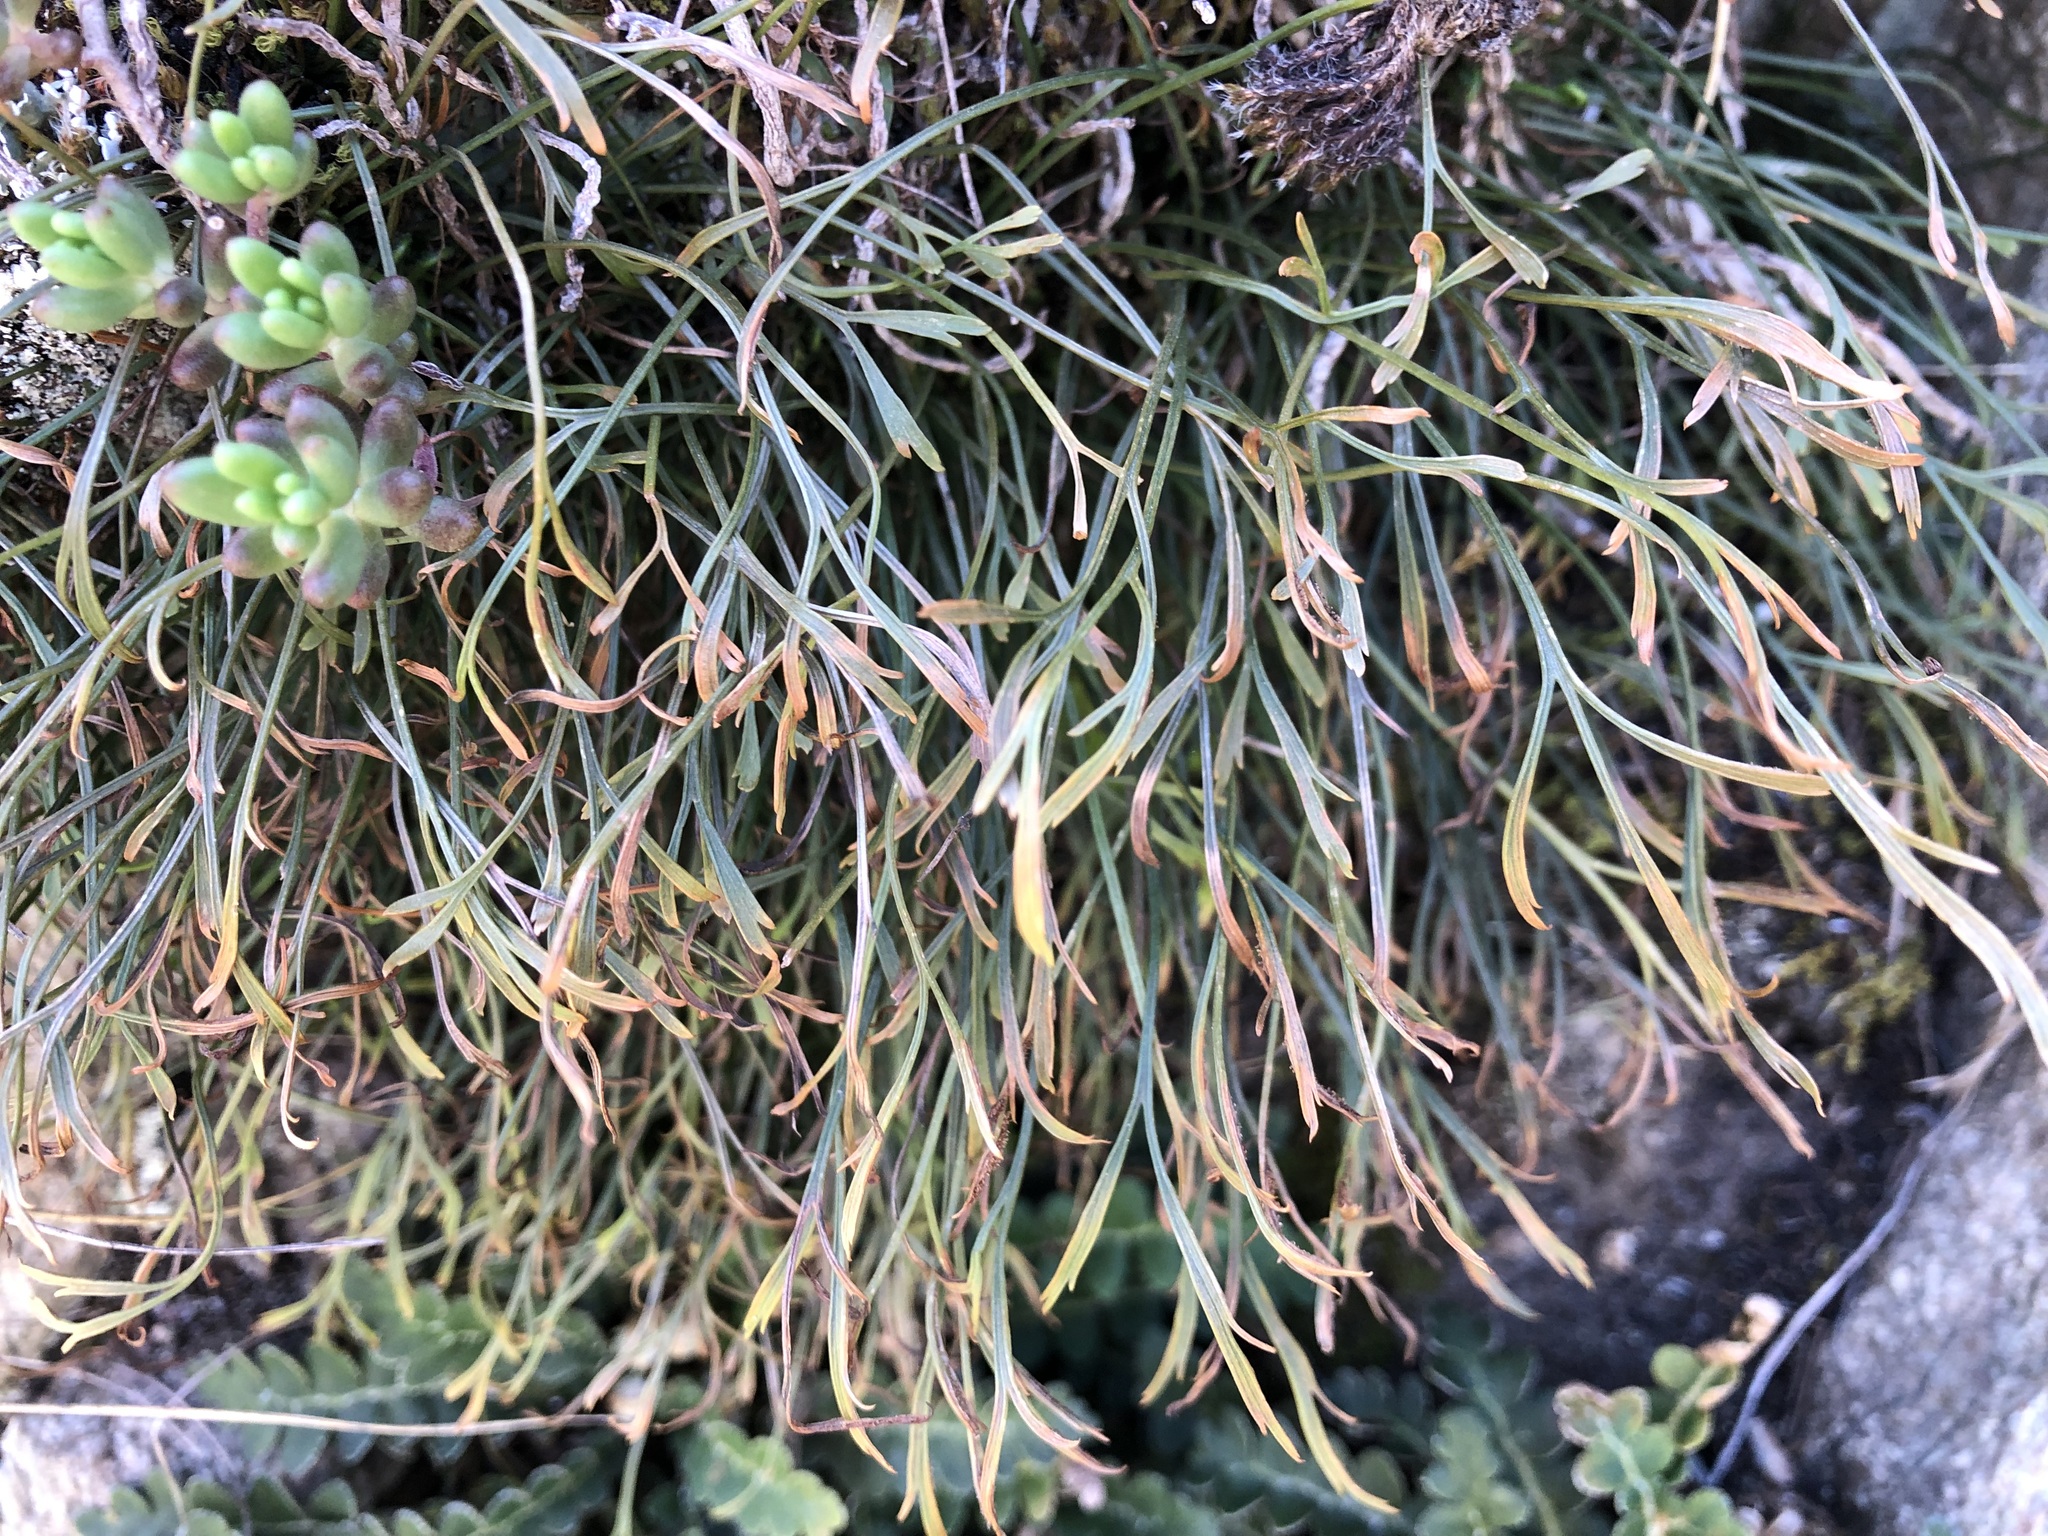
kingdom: Plantae
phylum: Tracheophyta
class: Polypodiopsida
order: Polypodiales
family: Aspleniaceae
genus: Asplenium
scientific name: Asplenium septentrionale
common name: Forked spleenwort
